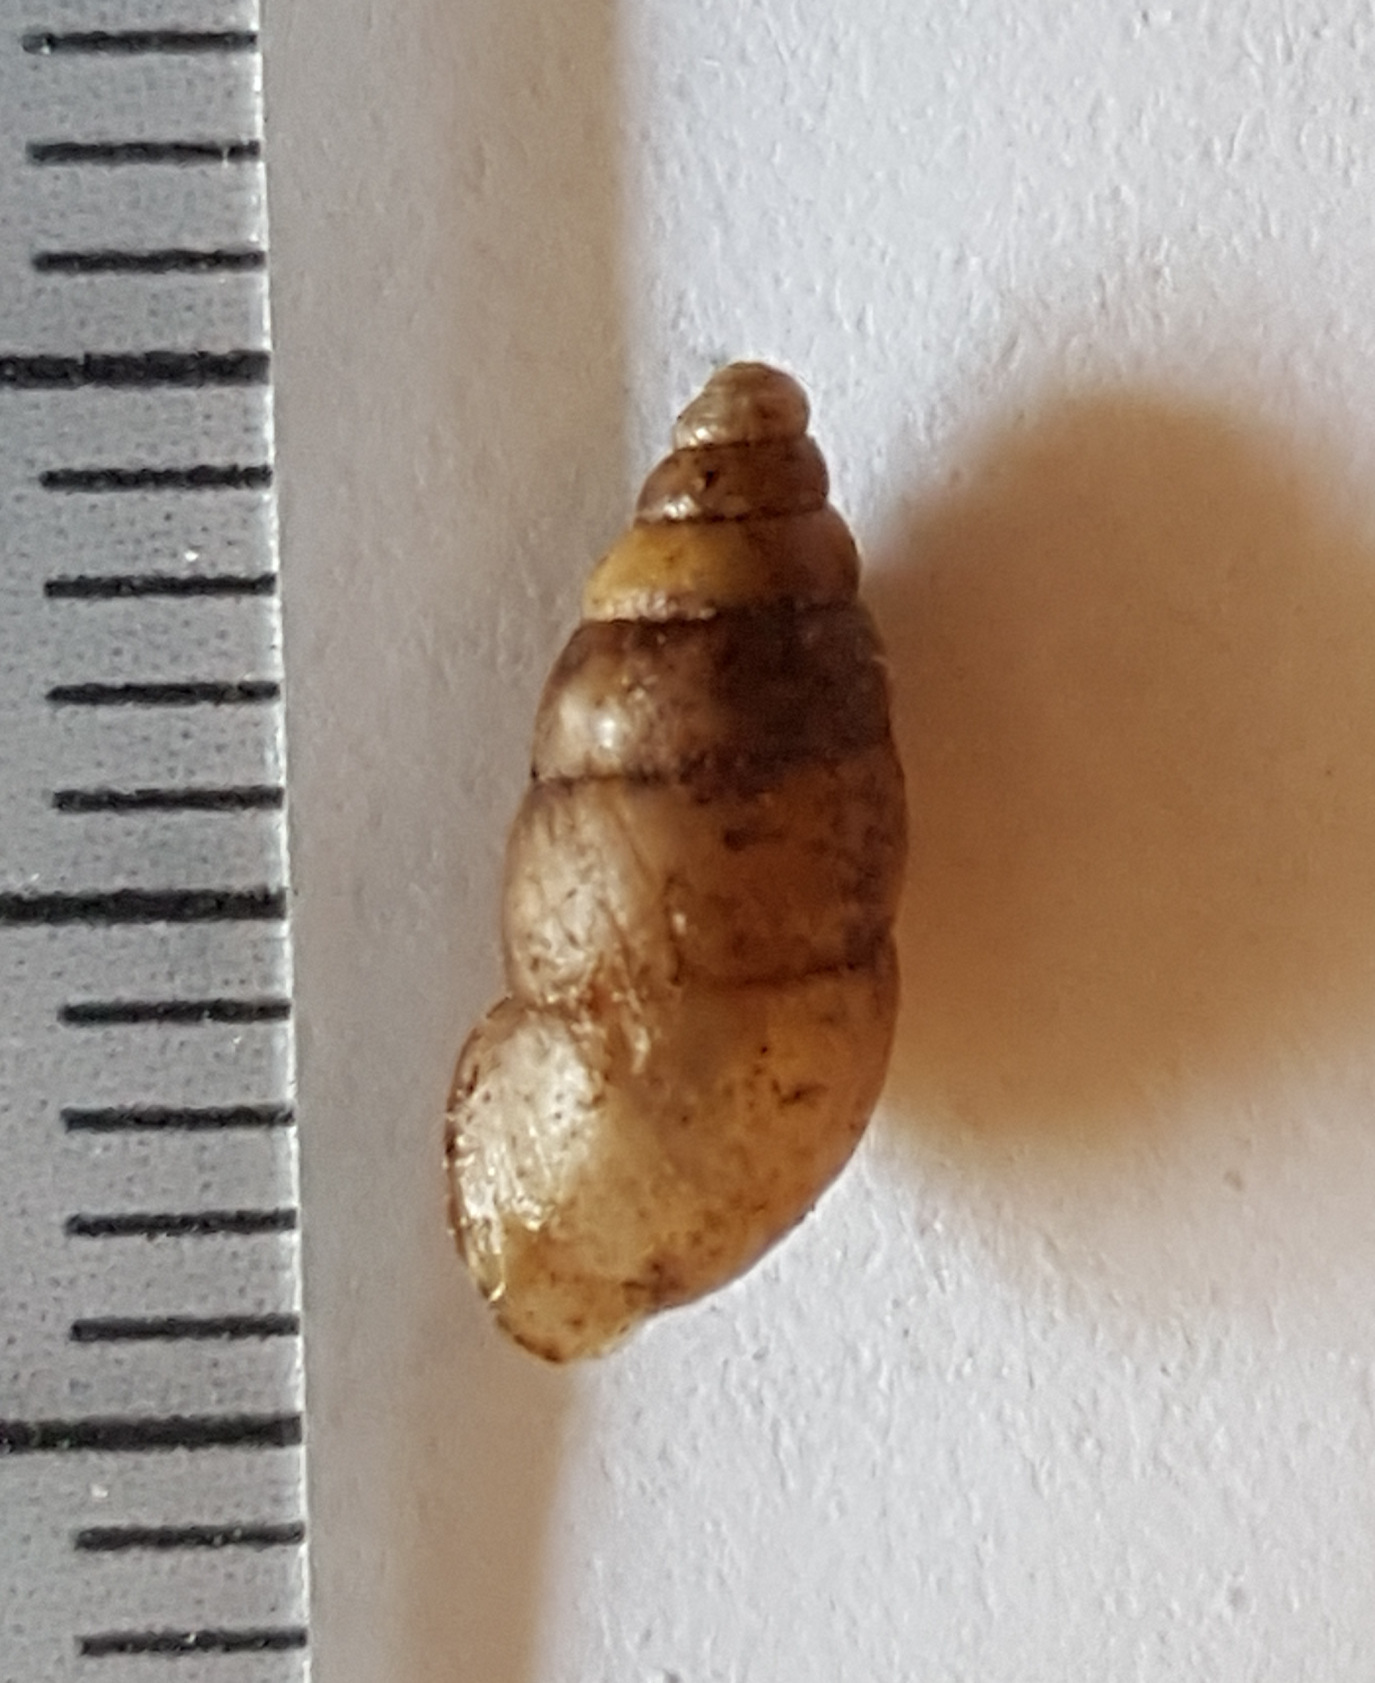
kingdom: Animalia
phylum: Mollusca
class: Gastropoda
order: Stylommatophora
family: Enidae
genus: Merdigera
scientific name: Merdigera obscura
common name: Lesser bulin
